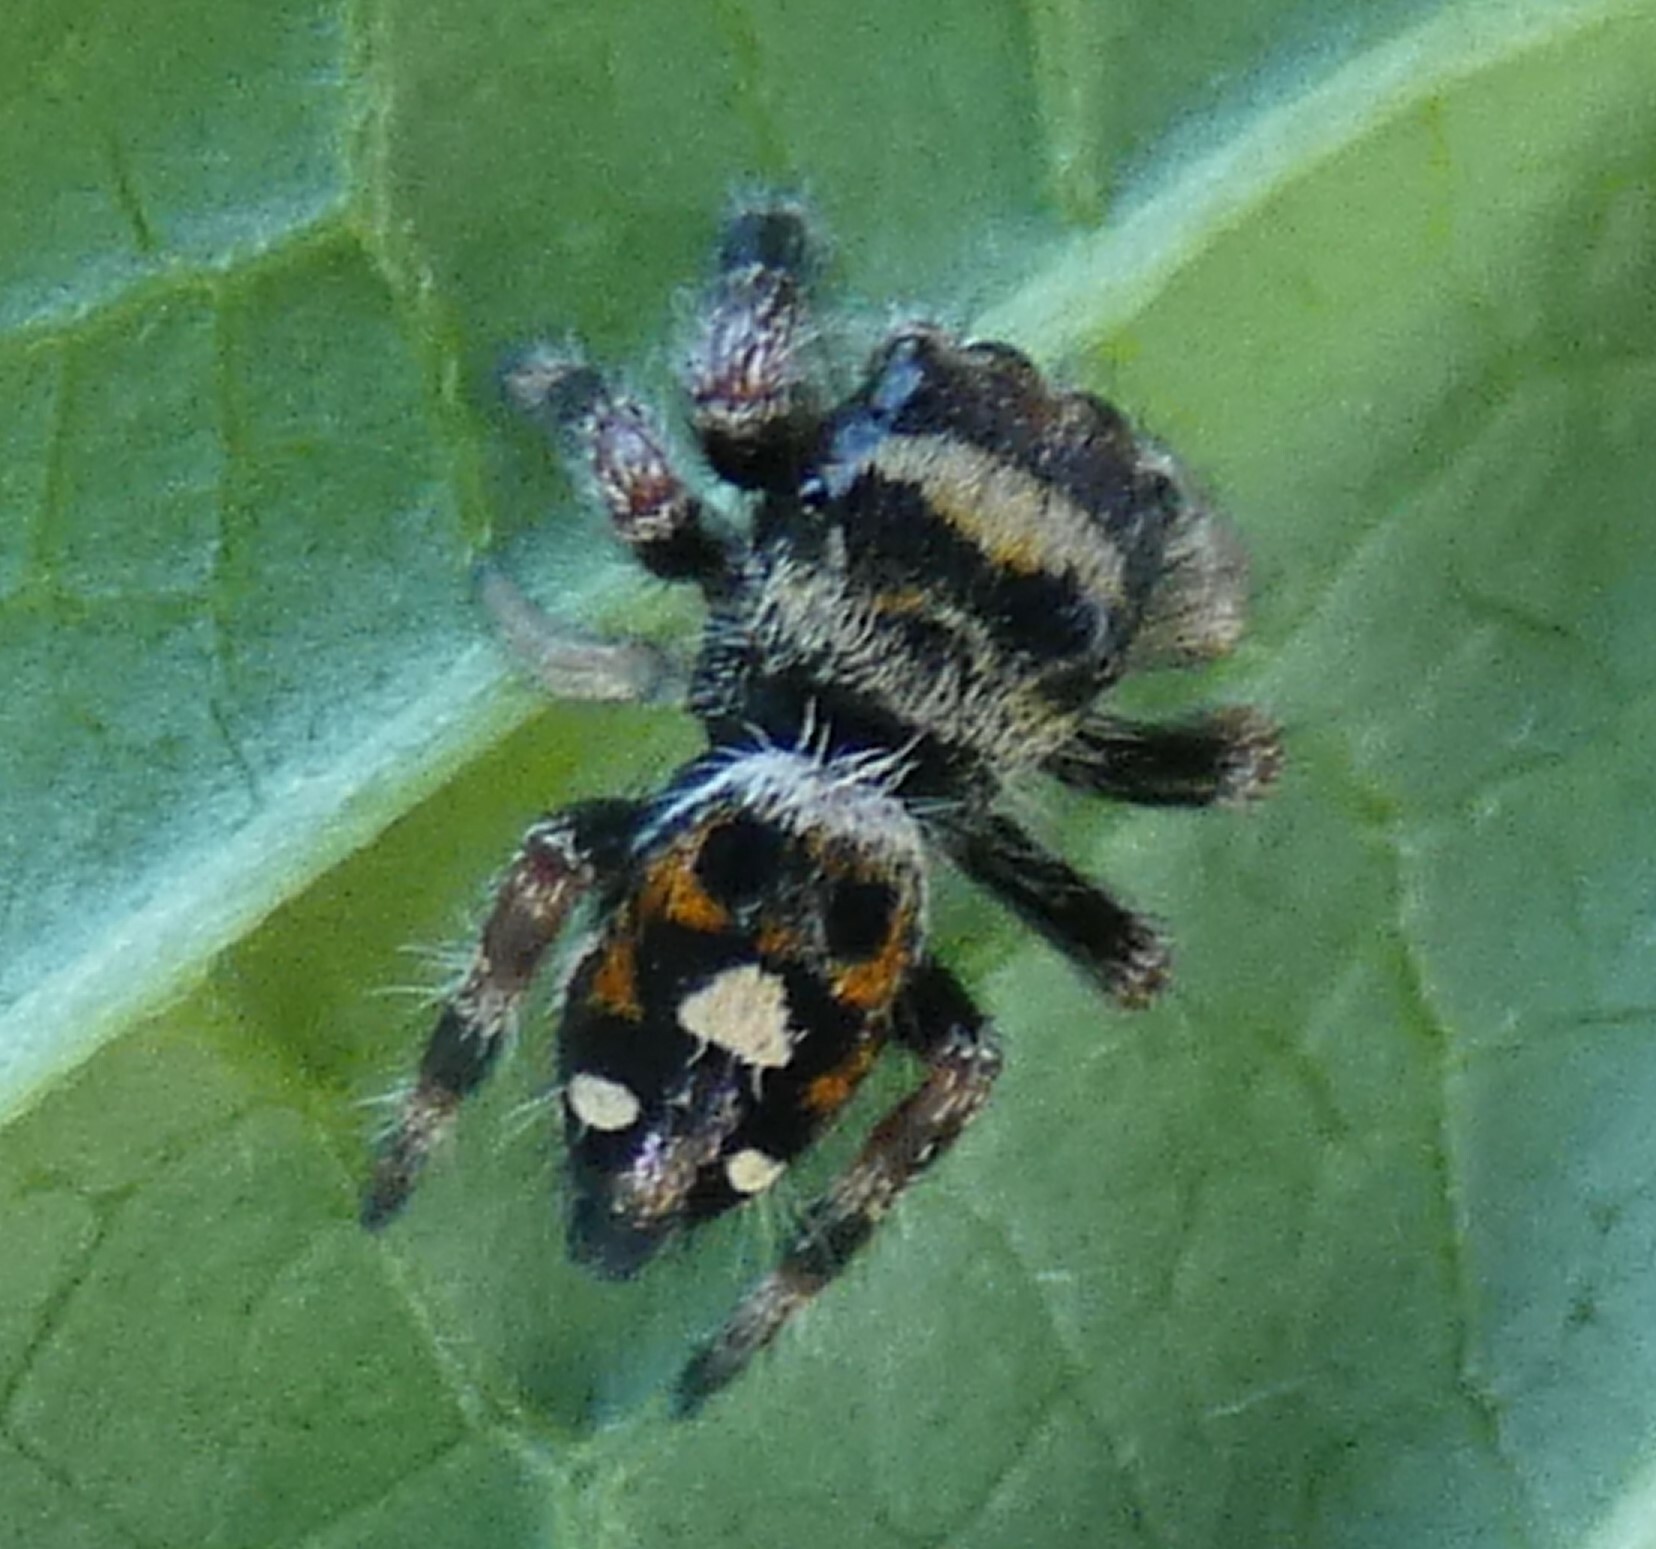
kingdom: Animalia
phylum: Arthropoda
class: Arachnida
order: Araneae
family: Salticidae
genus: Phidippus
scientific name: Phidippus regius
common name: Regal jumper
